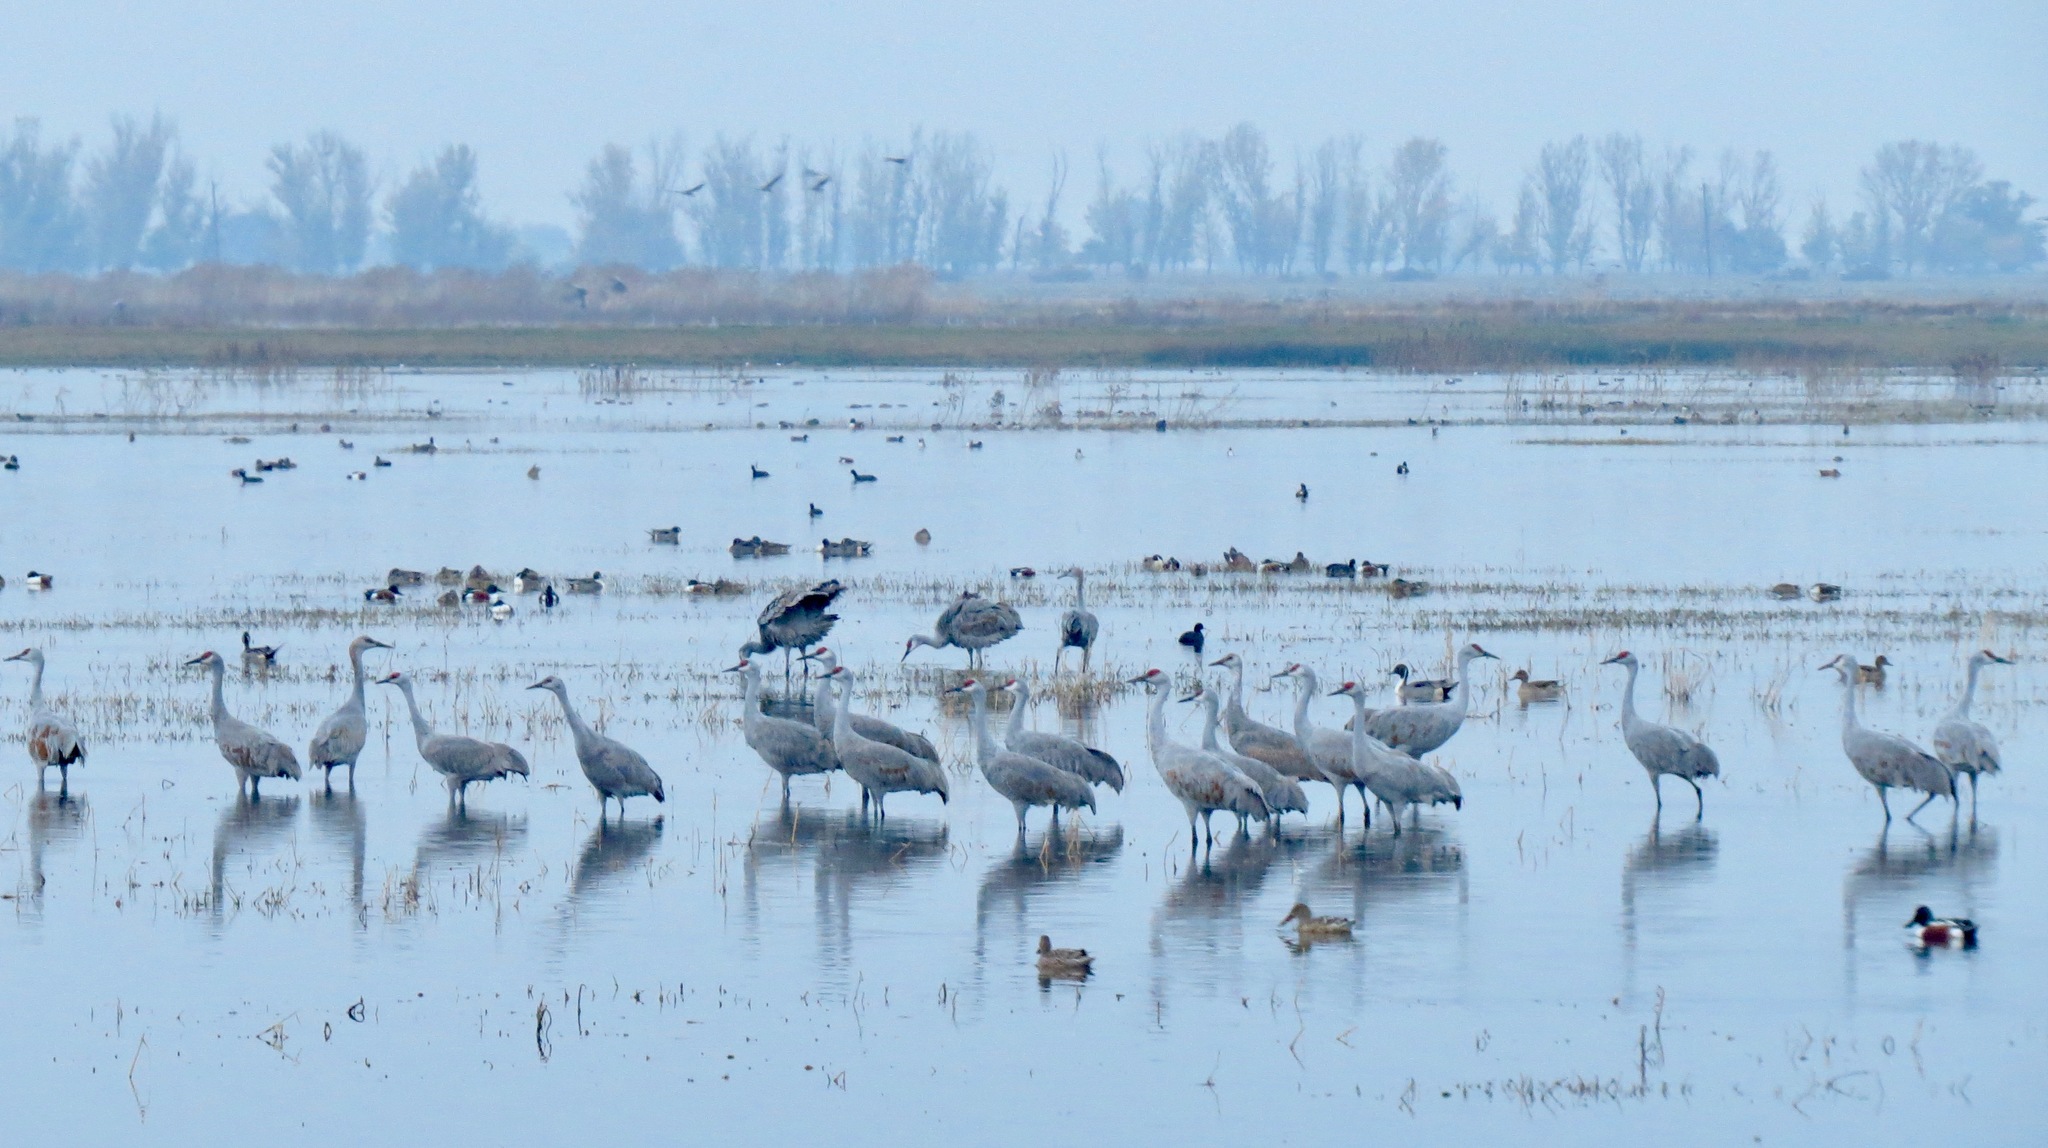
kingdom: Animalia
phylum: Chordata
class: Aves
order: Gruiformes
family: Gruidae
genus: Grus
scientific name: Grus canadensis
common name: Sandhill crane
